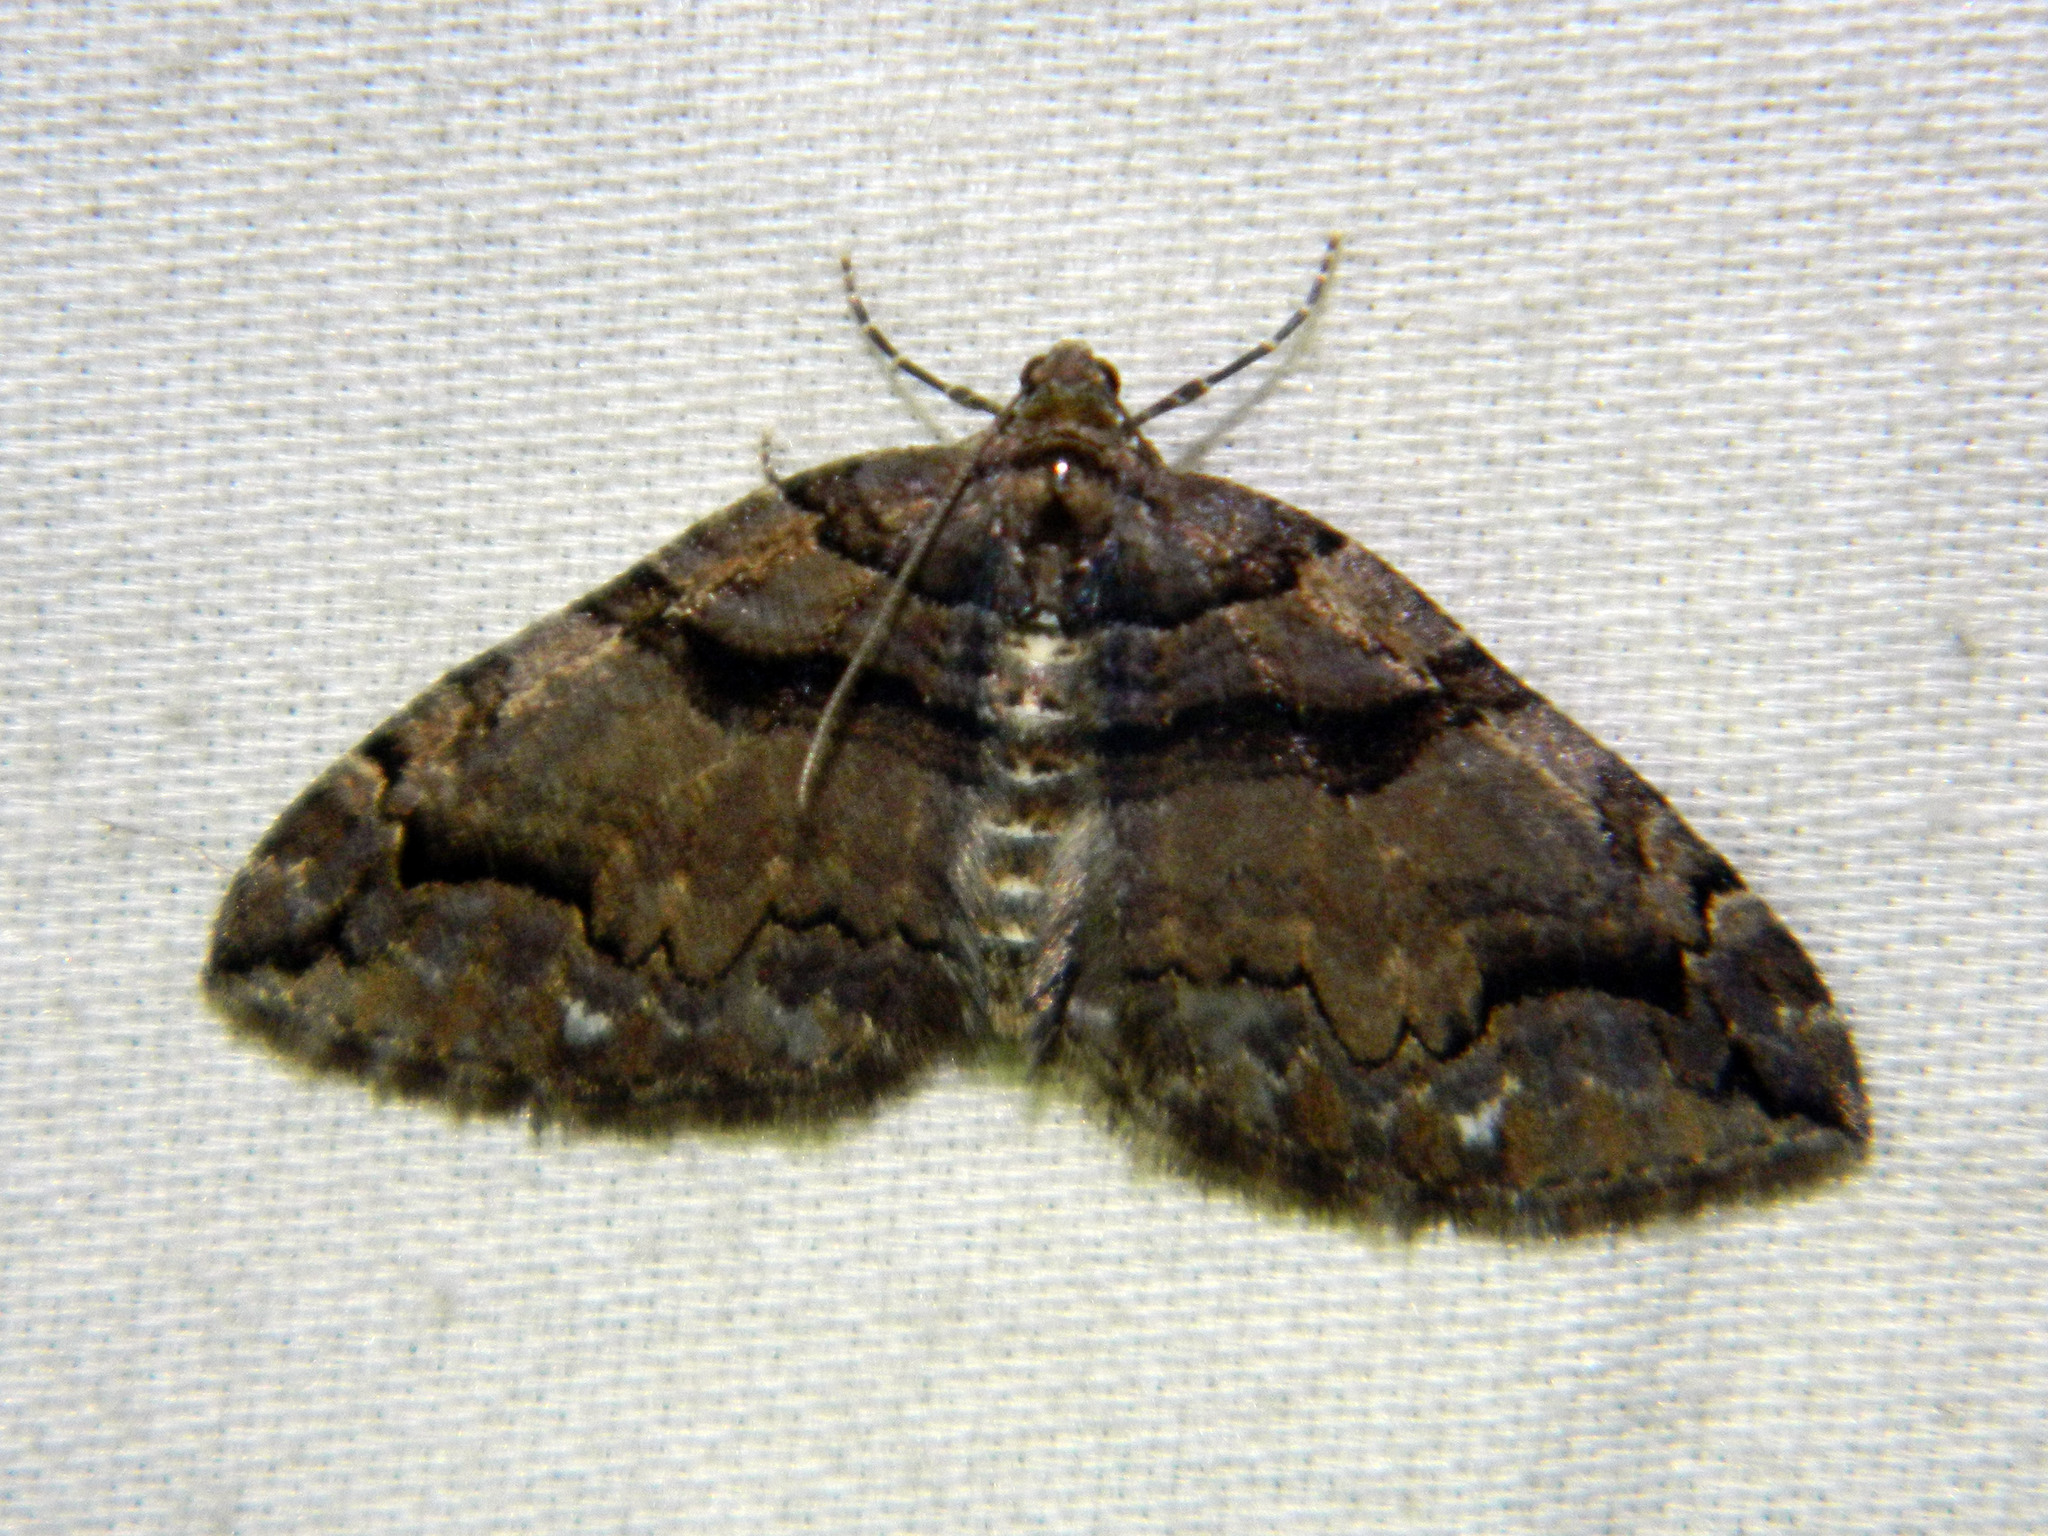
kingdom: Animalia
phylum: Arthropoda
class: Insecta
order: Lepidoptera
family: Geometridae
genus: Anticlea
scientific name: Anticlea vasiliata
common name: Variable carpet
